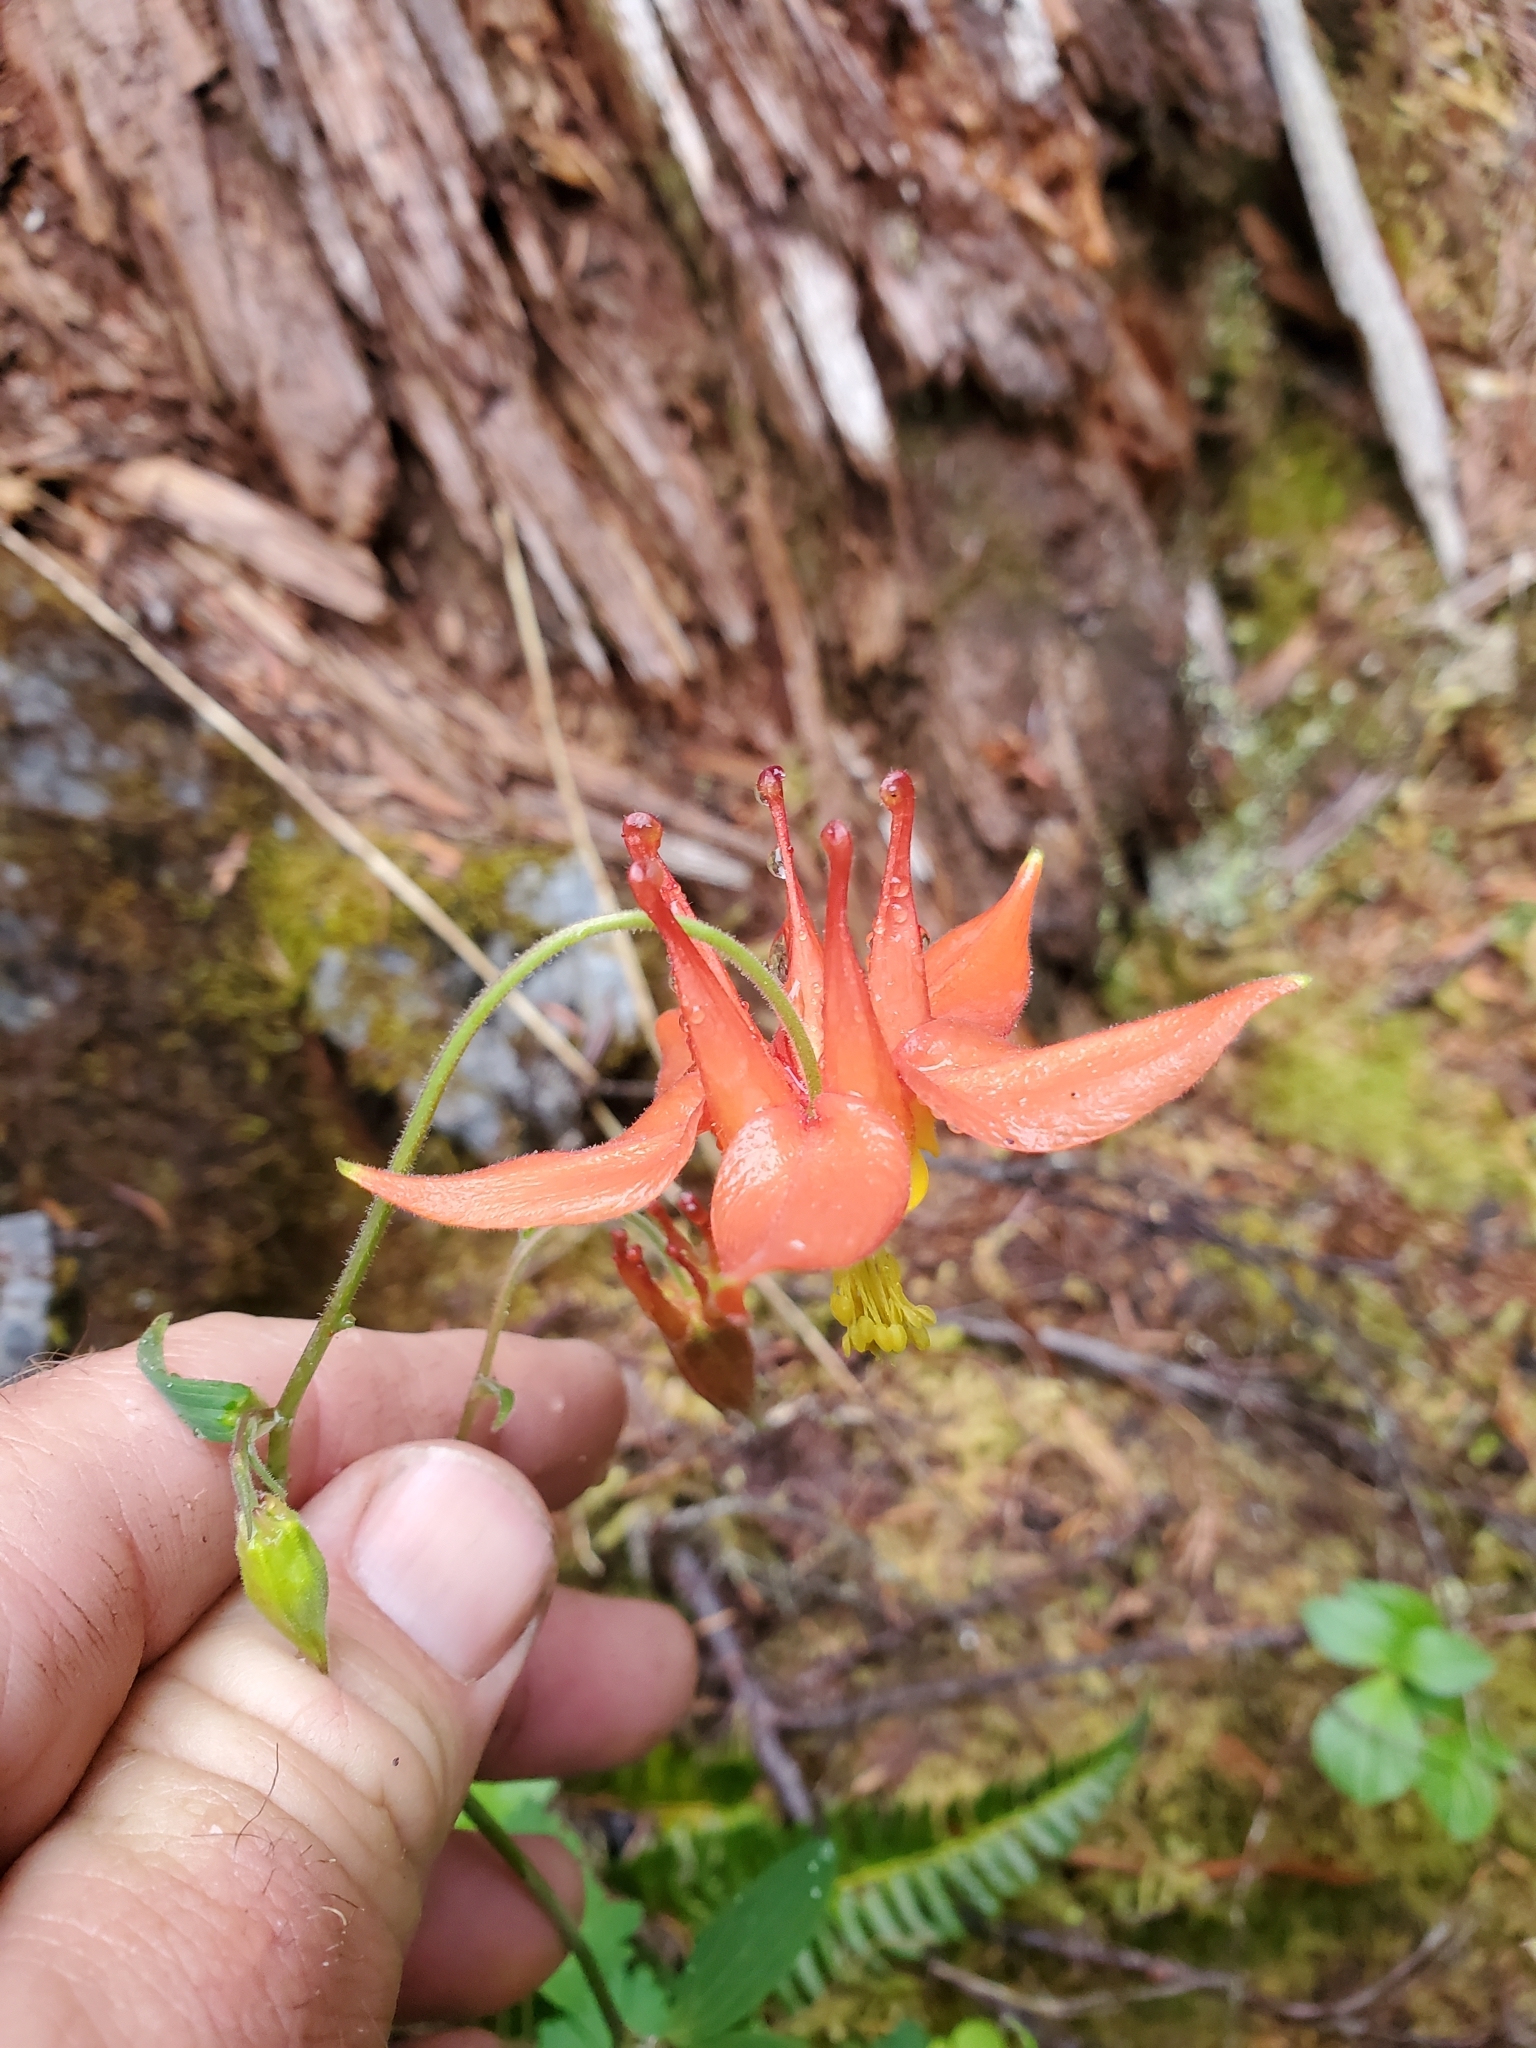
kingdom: Plantae
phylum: Tracheophyta
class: Magnoliopsida
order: Ranunculales
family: Ranunculaceae
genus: Aquilegia
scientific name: Aquilegia formosa
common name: Sitka columbine
